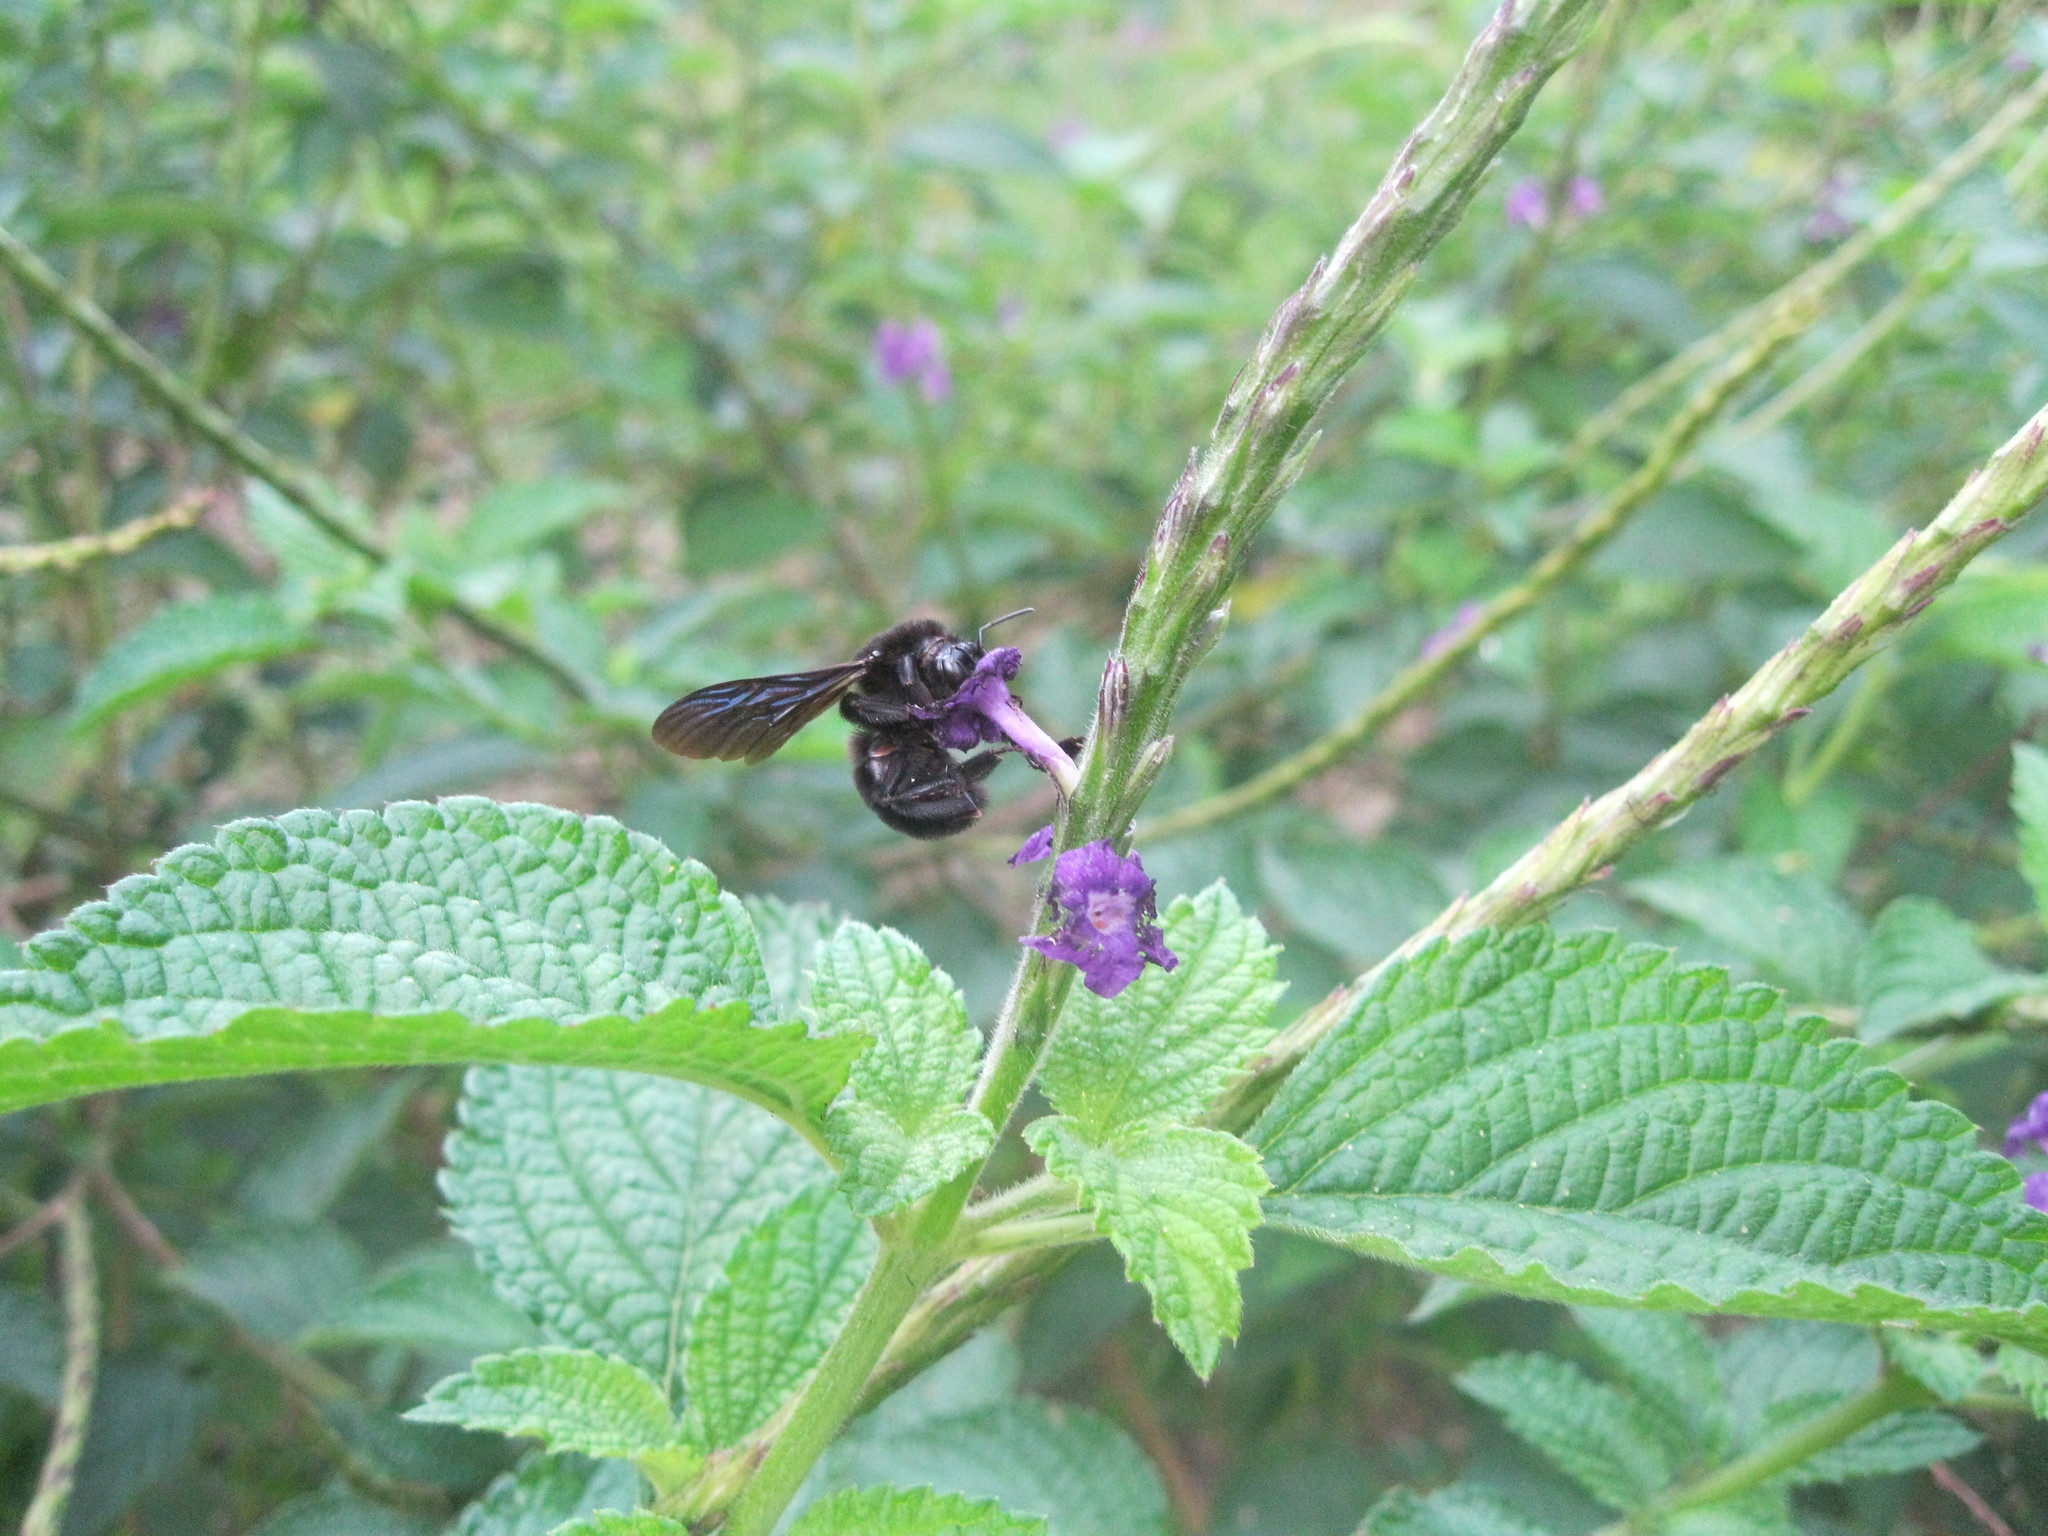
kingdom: Animalia
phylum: Arthropoda
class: Insecta
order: Hymenoptera
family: Apidae
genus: Bombus
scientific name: Bombus pullatus
